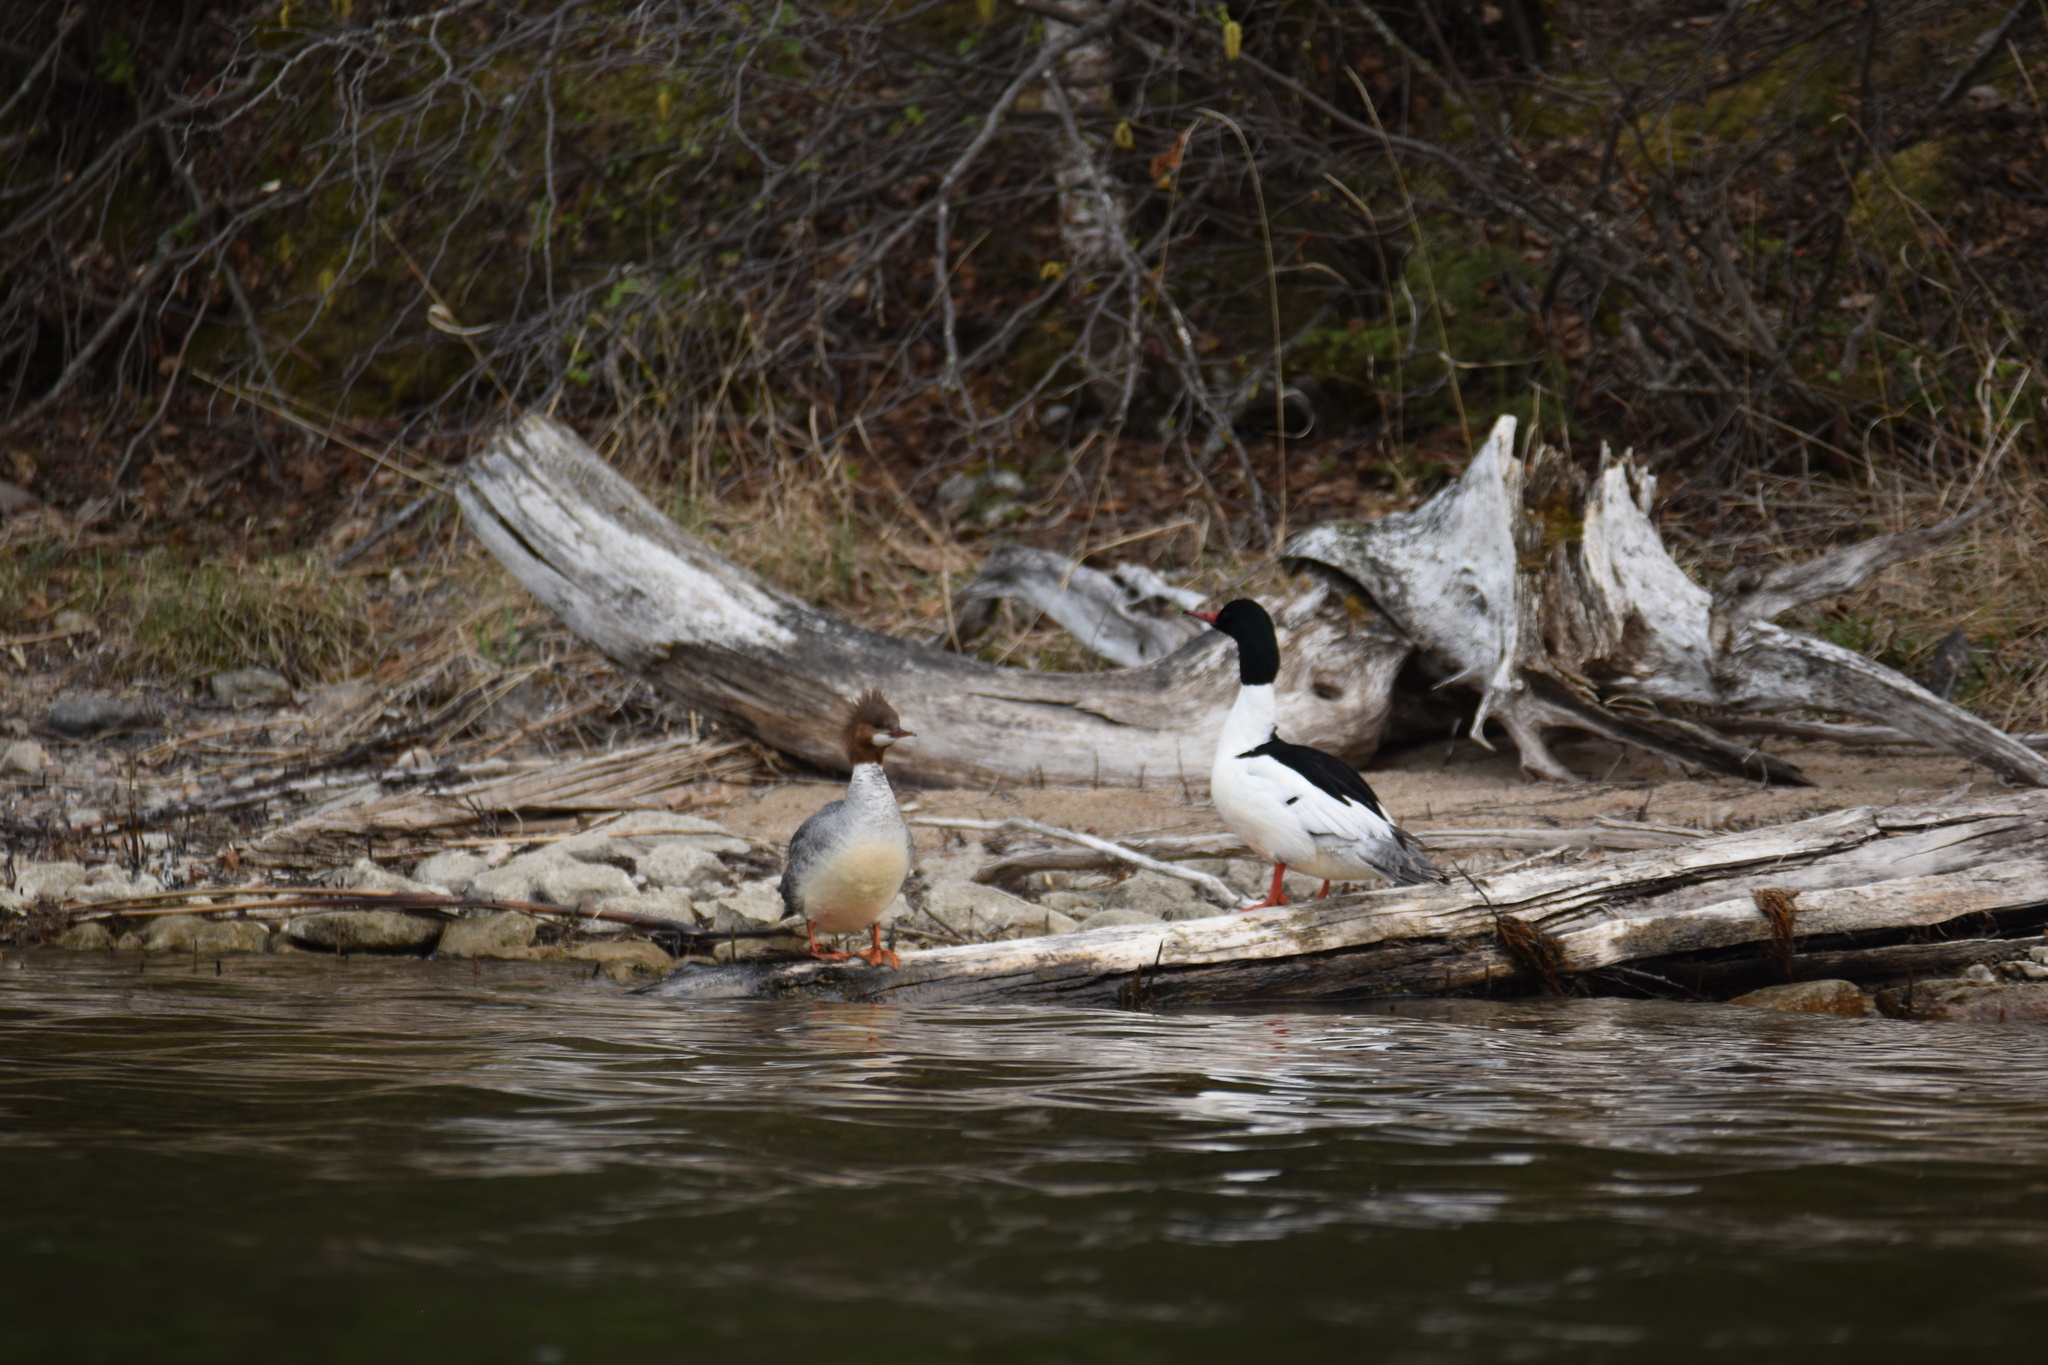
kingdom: Animalia
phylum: Chordata
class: Aves
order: Anseriformes
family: Anatidae
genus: Mergus
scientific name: Mergus merganser
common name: Common merganser
